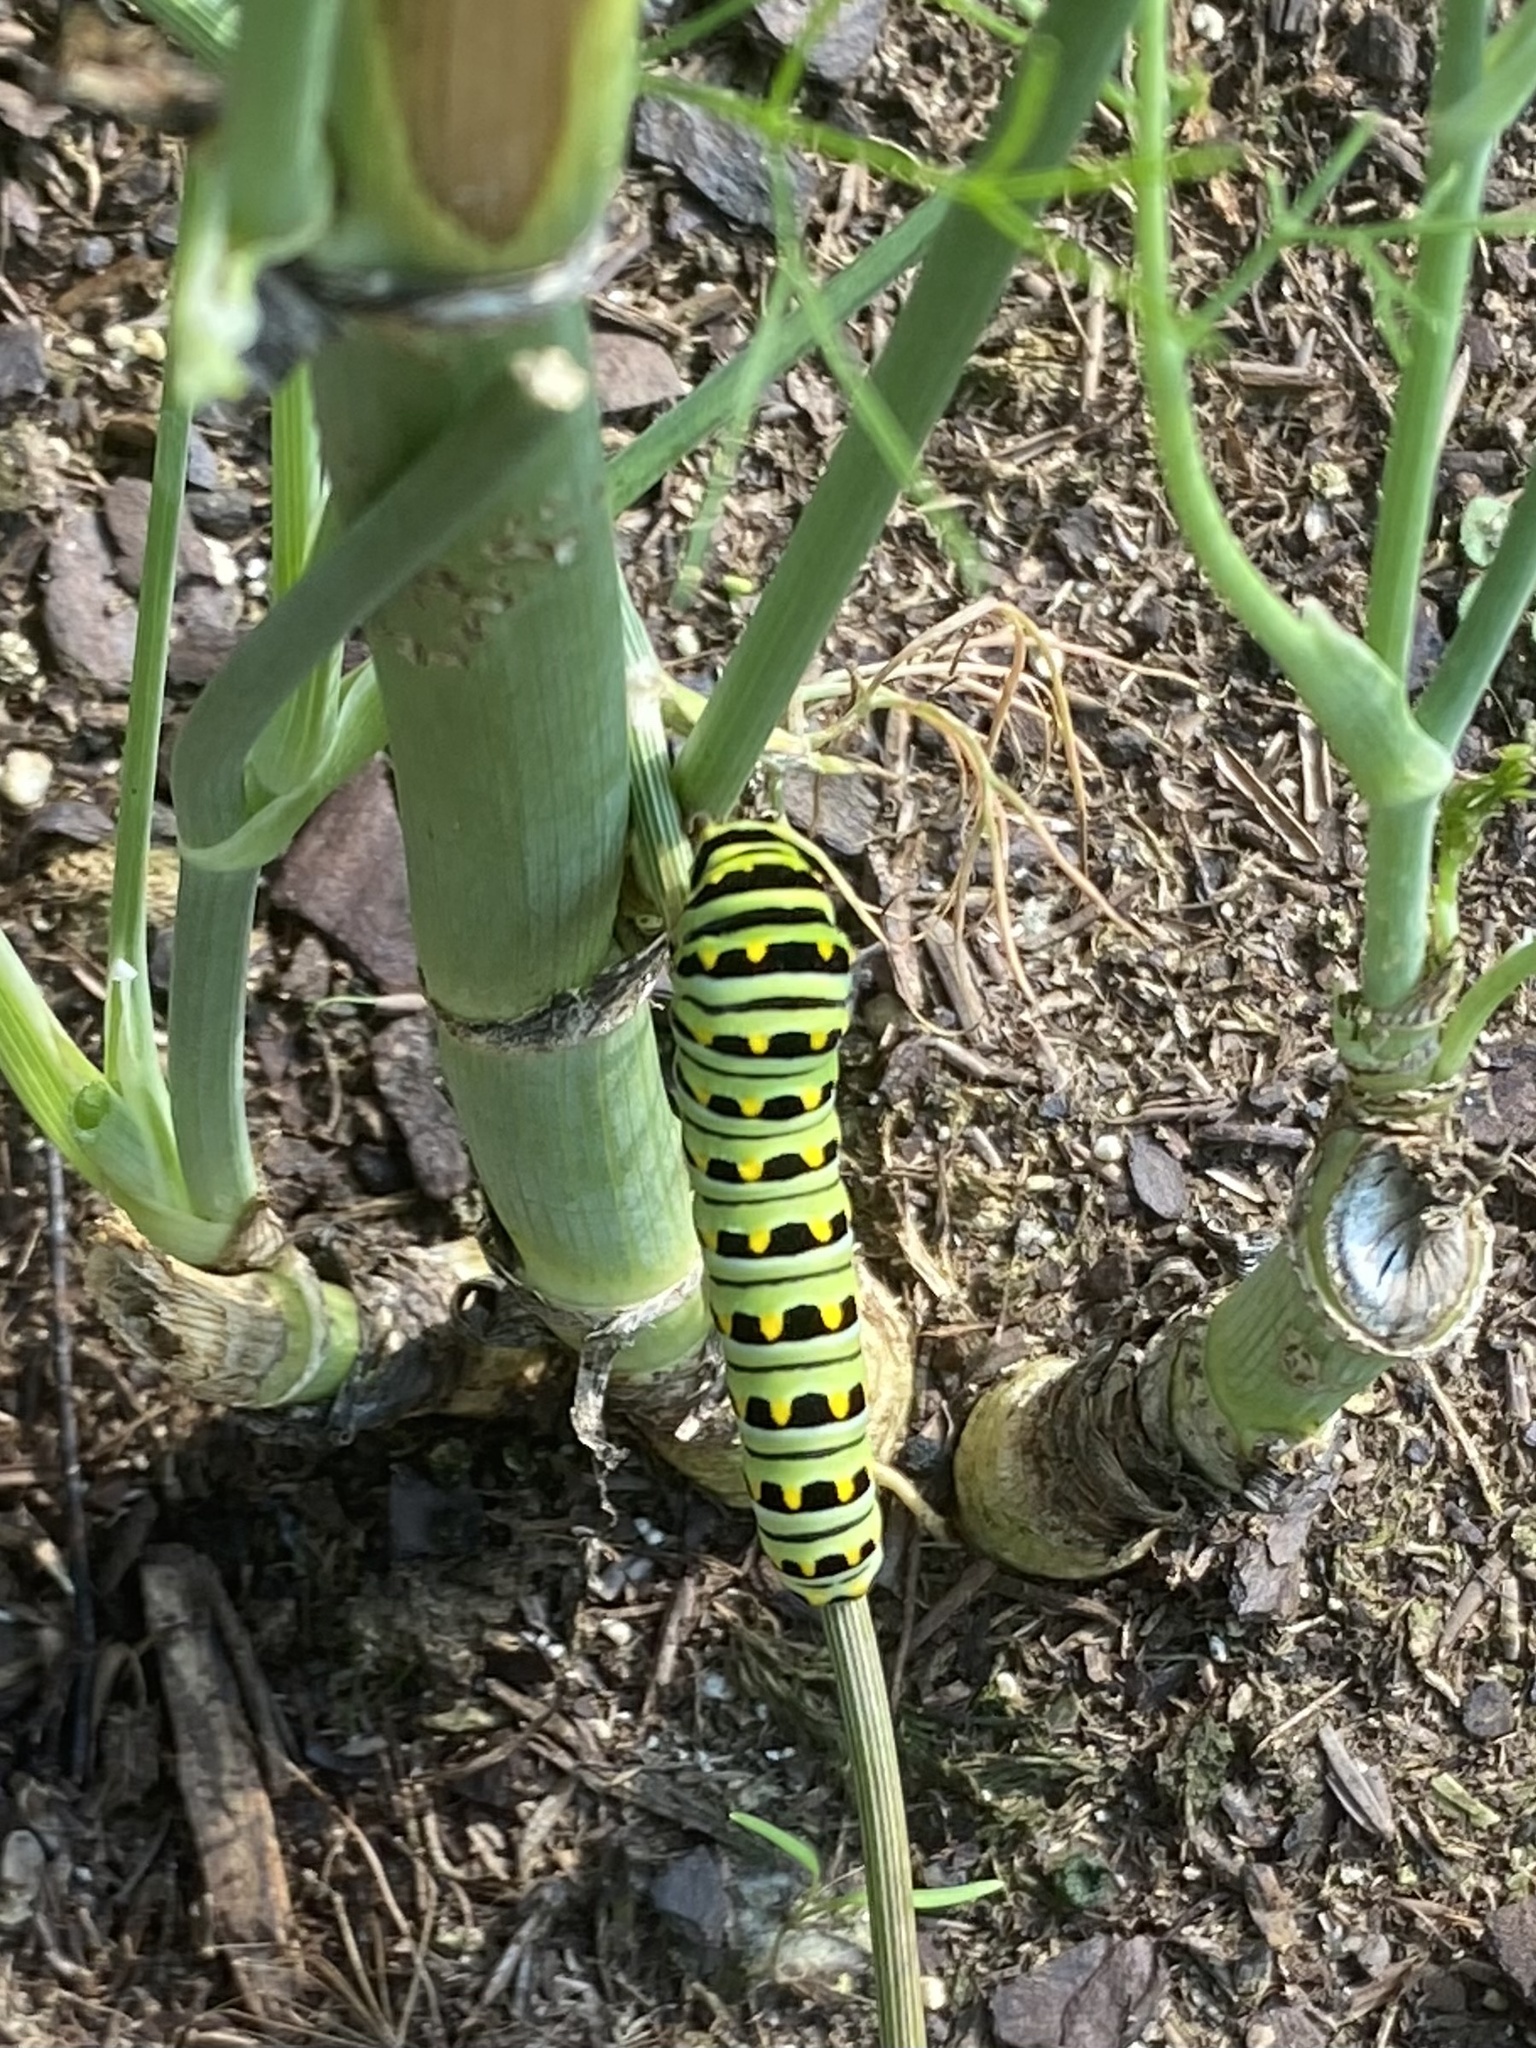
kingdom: Animalia
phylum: Arthropoda
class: Insecta
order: Lepidoptera
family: Papilionidae
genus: Papilio
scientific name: Papilio polyxenes
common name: Black swallowtail
